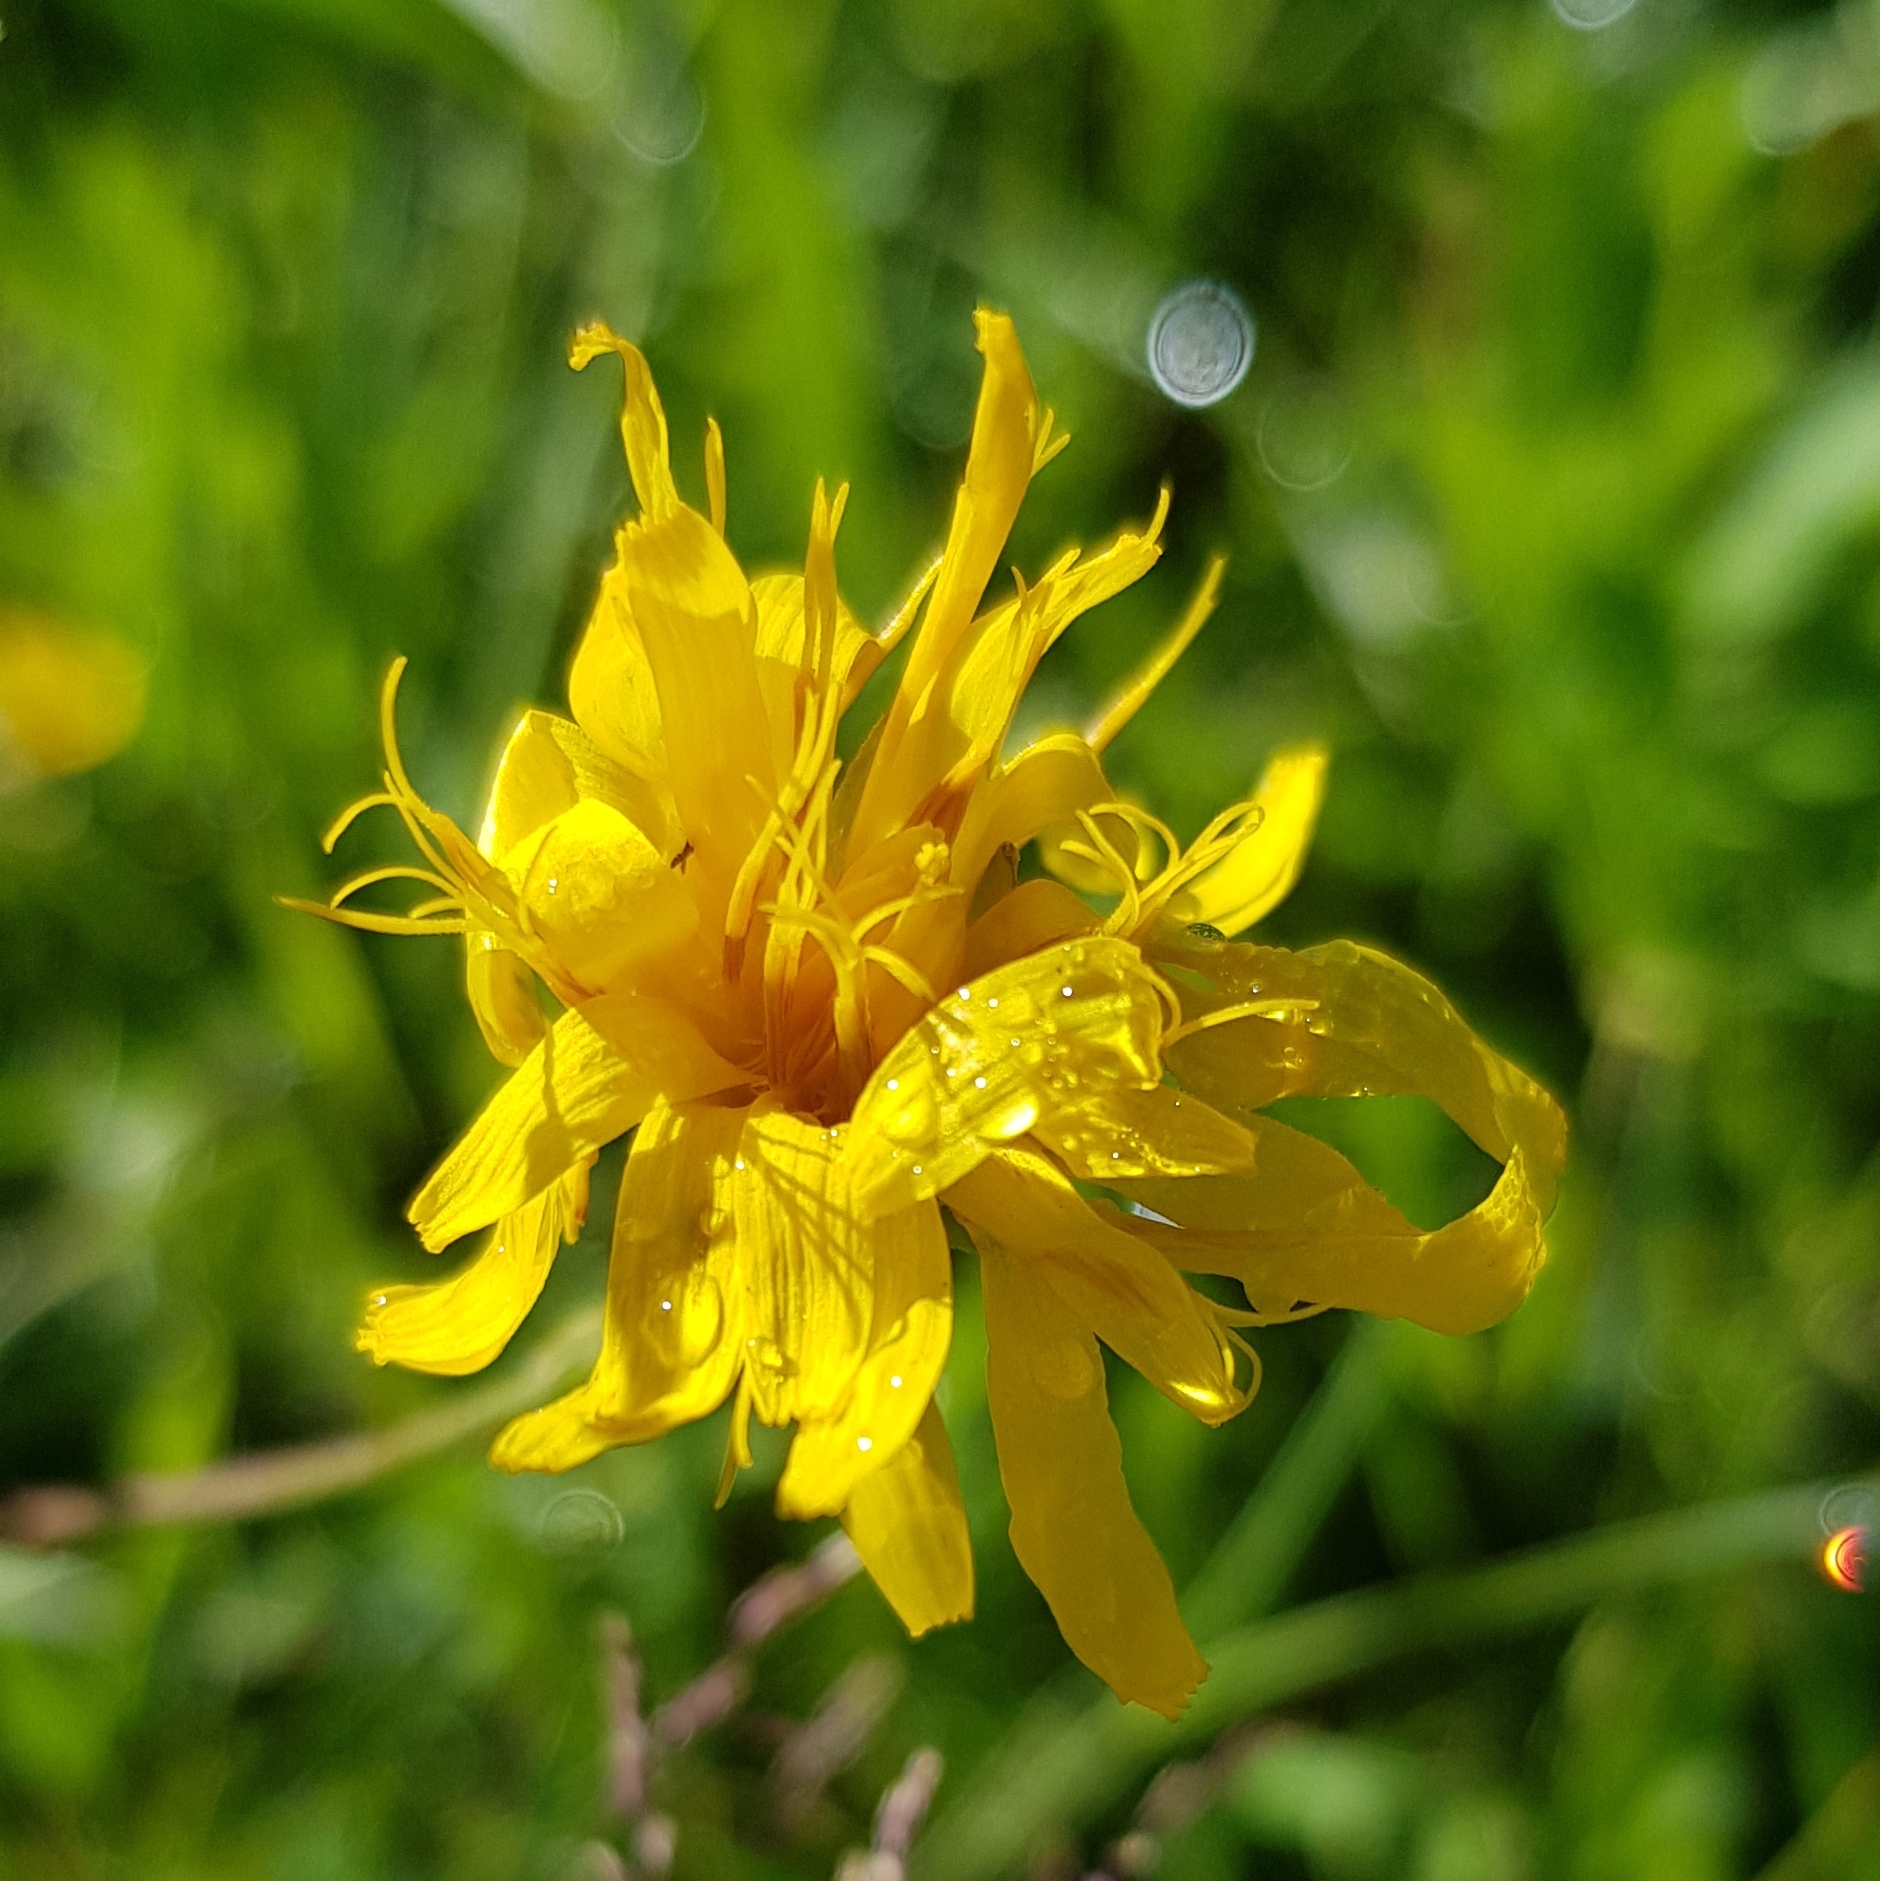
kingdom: Plantae
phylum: Tracheophyta
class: Magnoliopsida
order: Asterales
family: Asteraceae
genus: Hieracium
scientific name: Hieracium umbellatum
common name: Northern hawkweed
